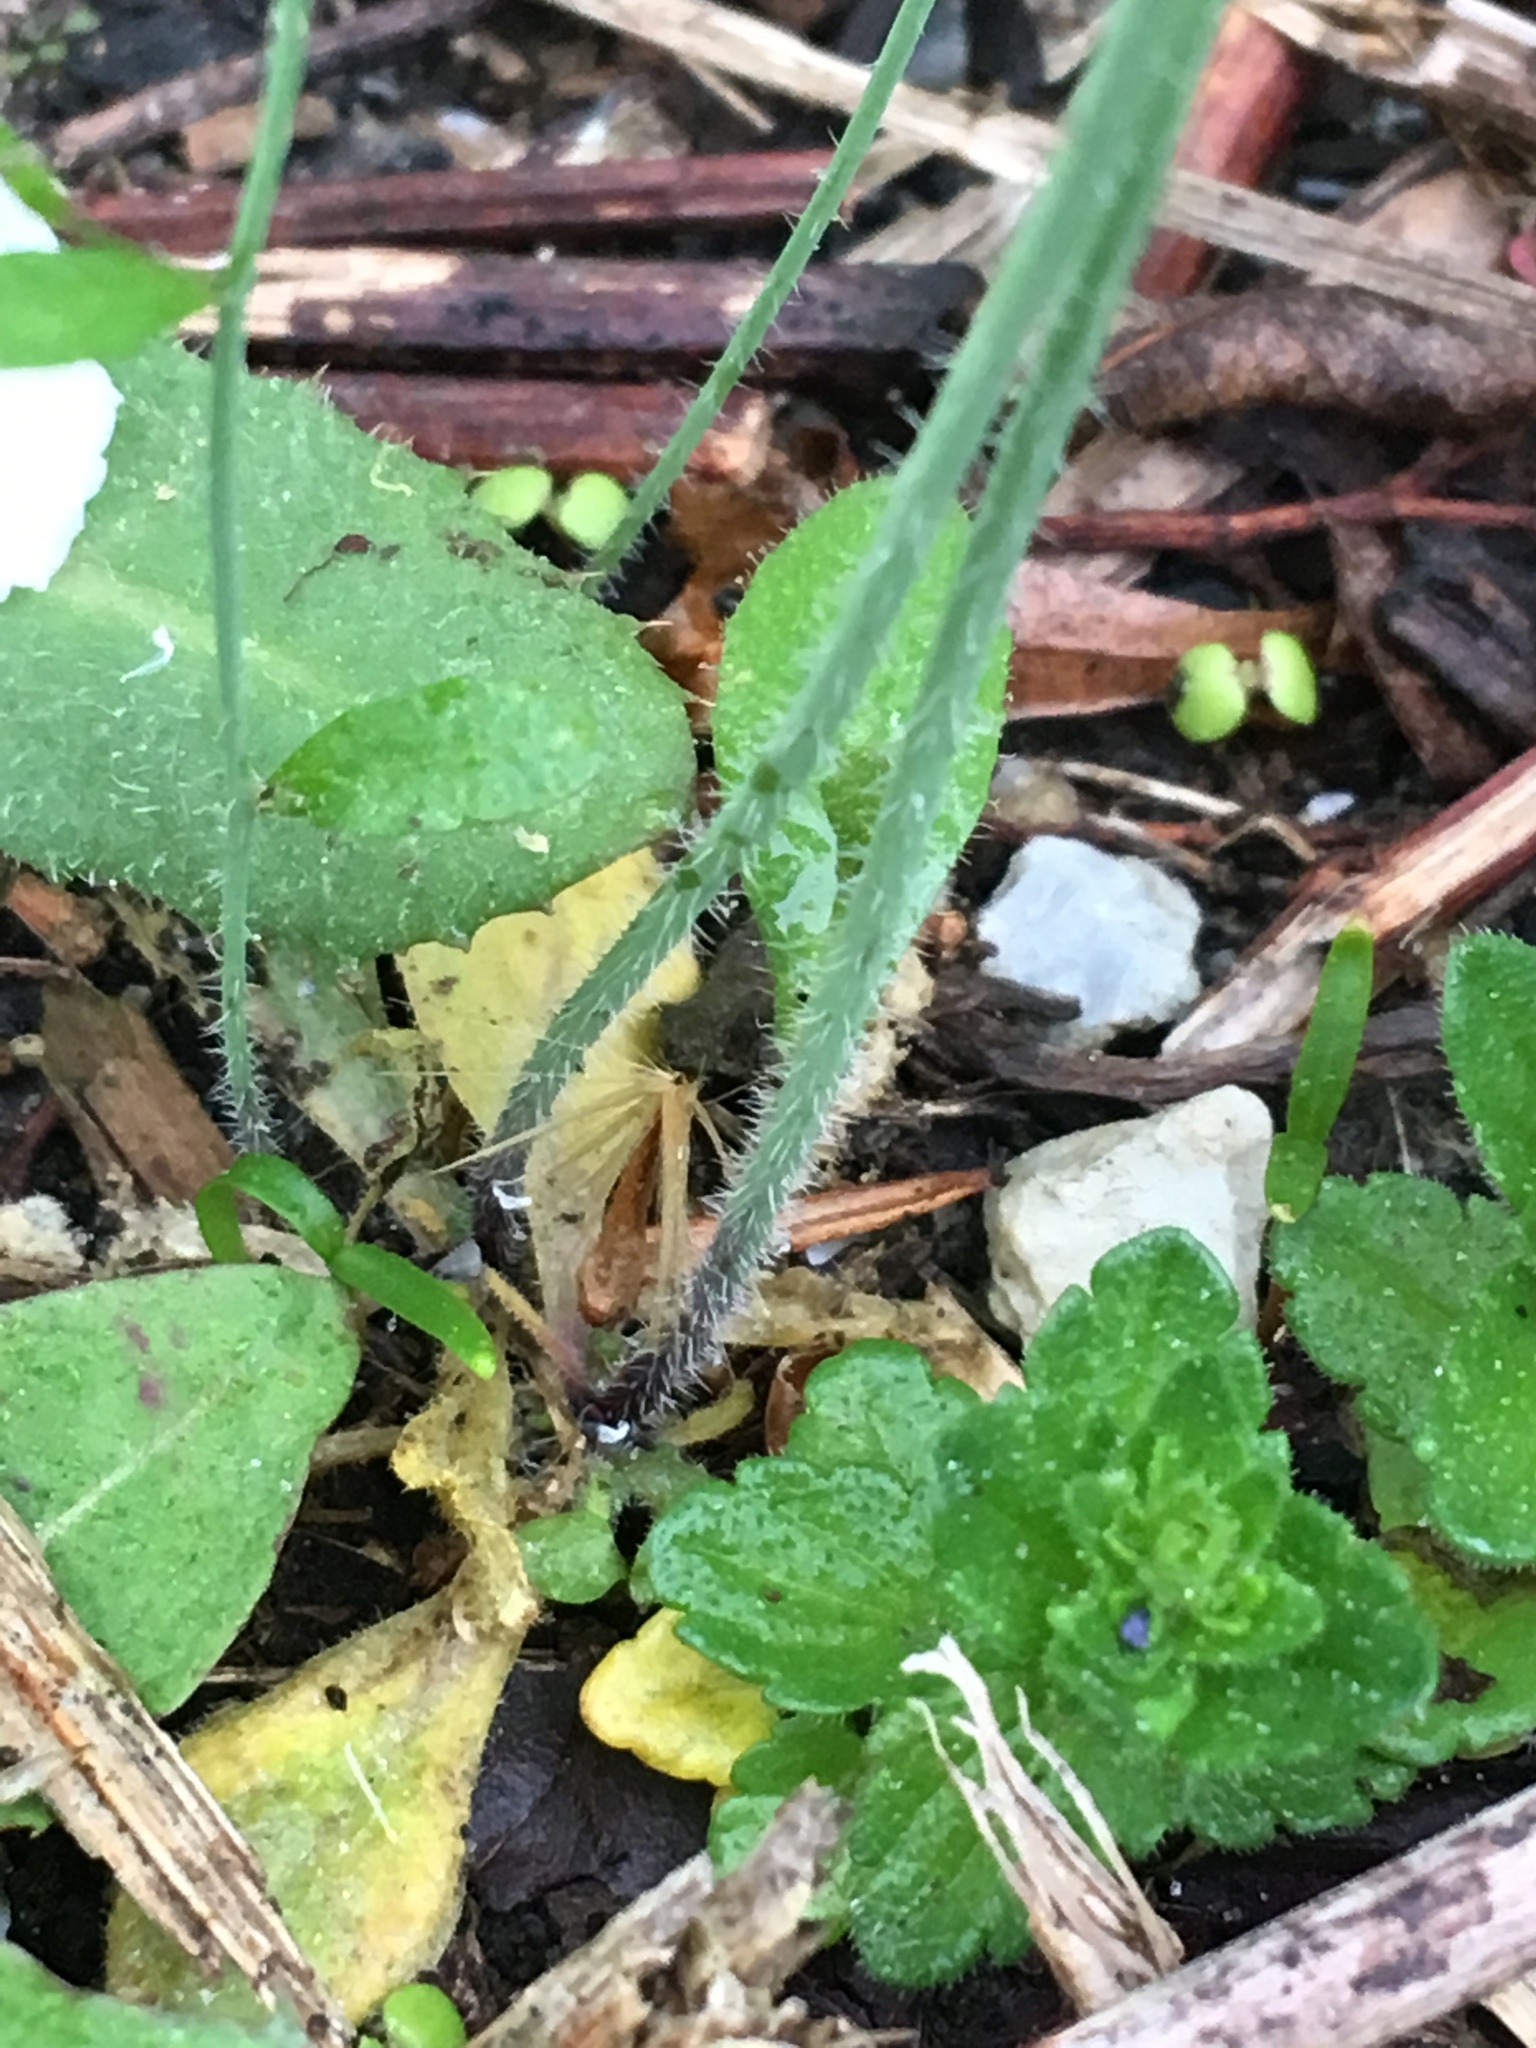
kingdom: Plantae
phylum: Tracheophyta
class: Magnoliopsida
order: Brassicales
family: Brassicaceae
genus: Arabidopsis
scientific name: Arabidopsis thaliana
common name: Thale cress
